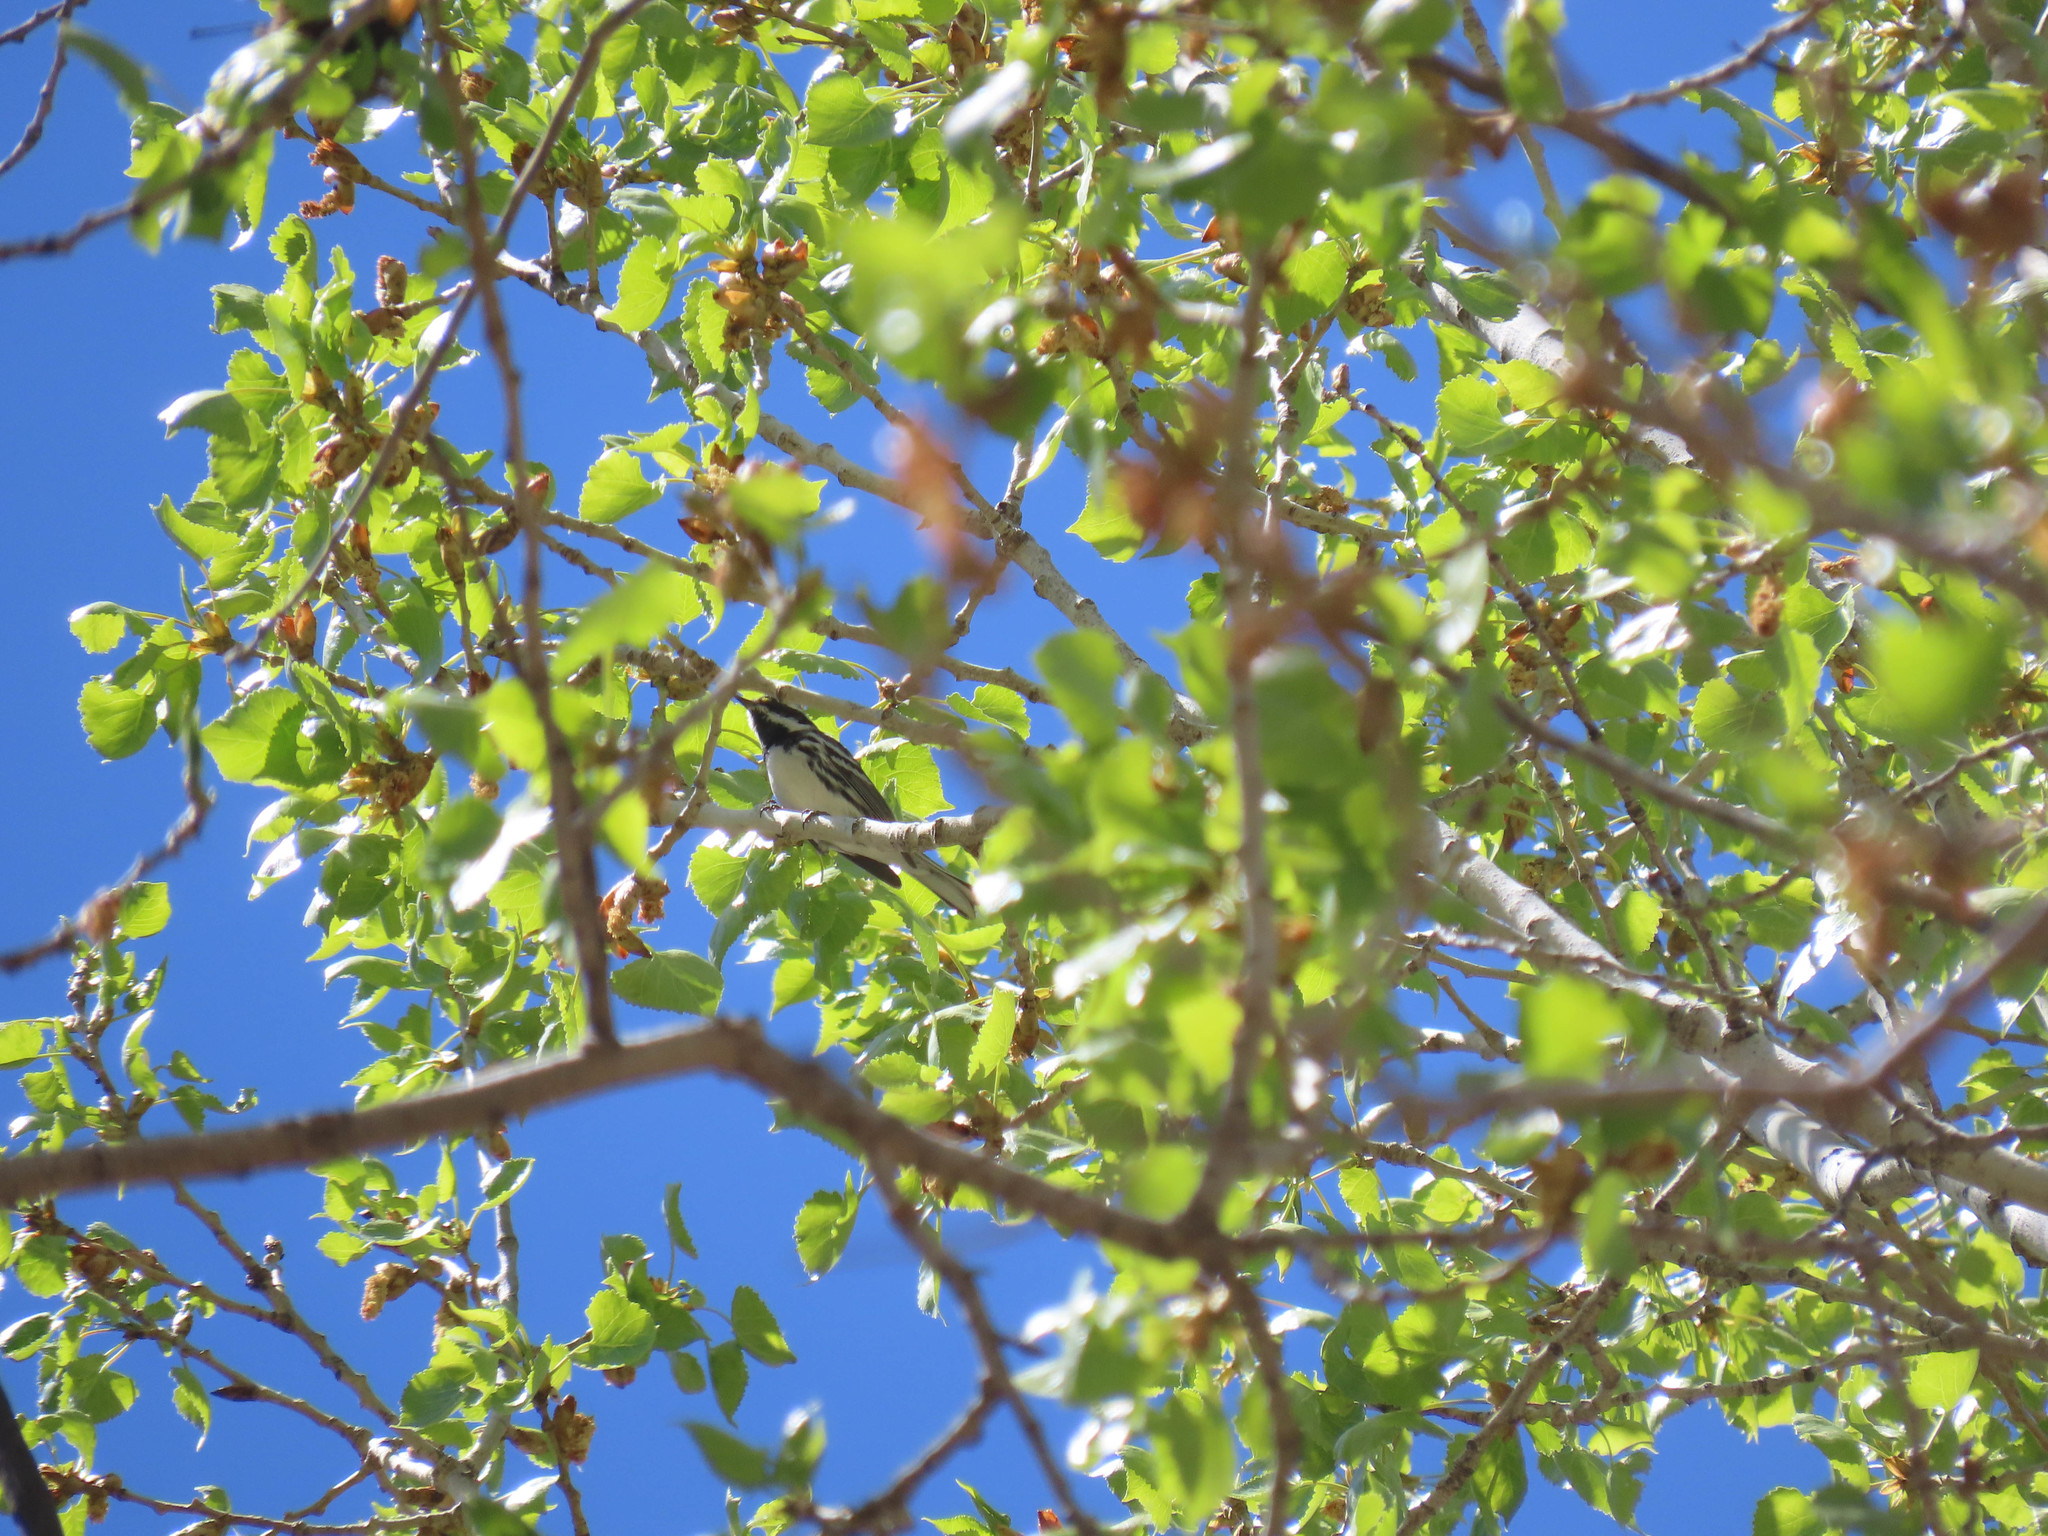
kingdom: Animalia
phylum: Chordata
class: Aves
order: Passeriformes
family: Parulidae
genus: Setophaga
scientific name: Setophaga nigrescens
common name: Black-throated gray warbler
